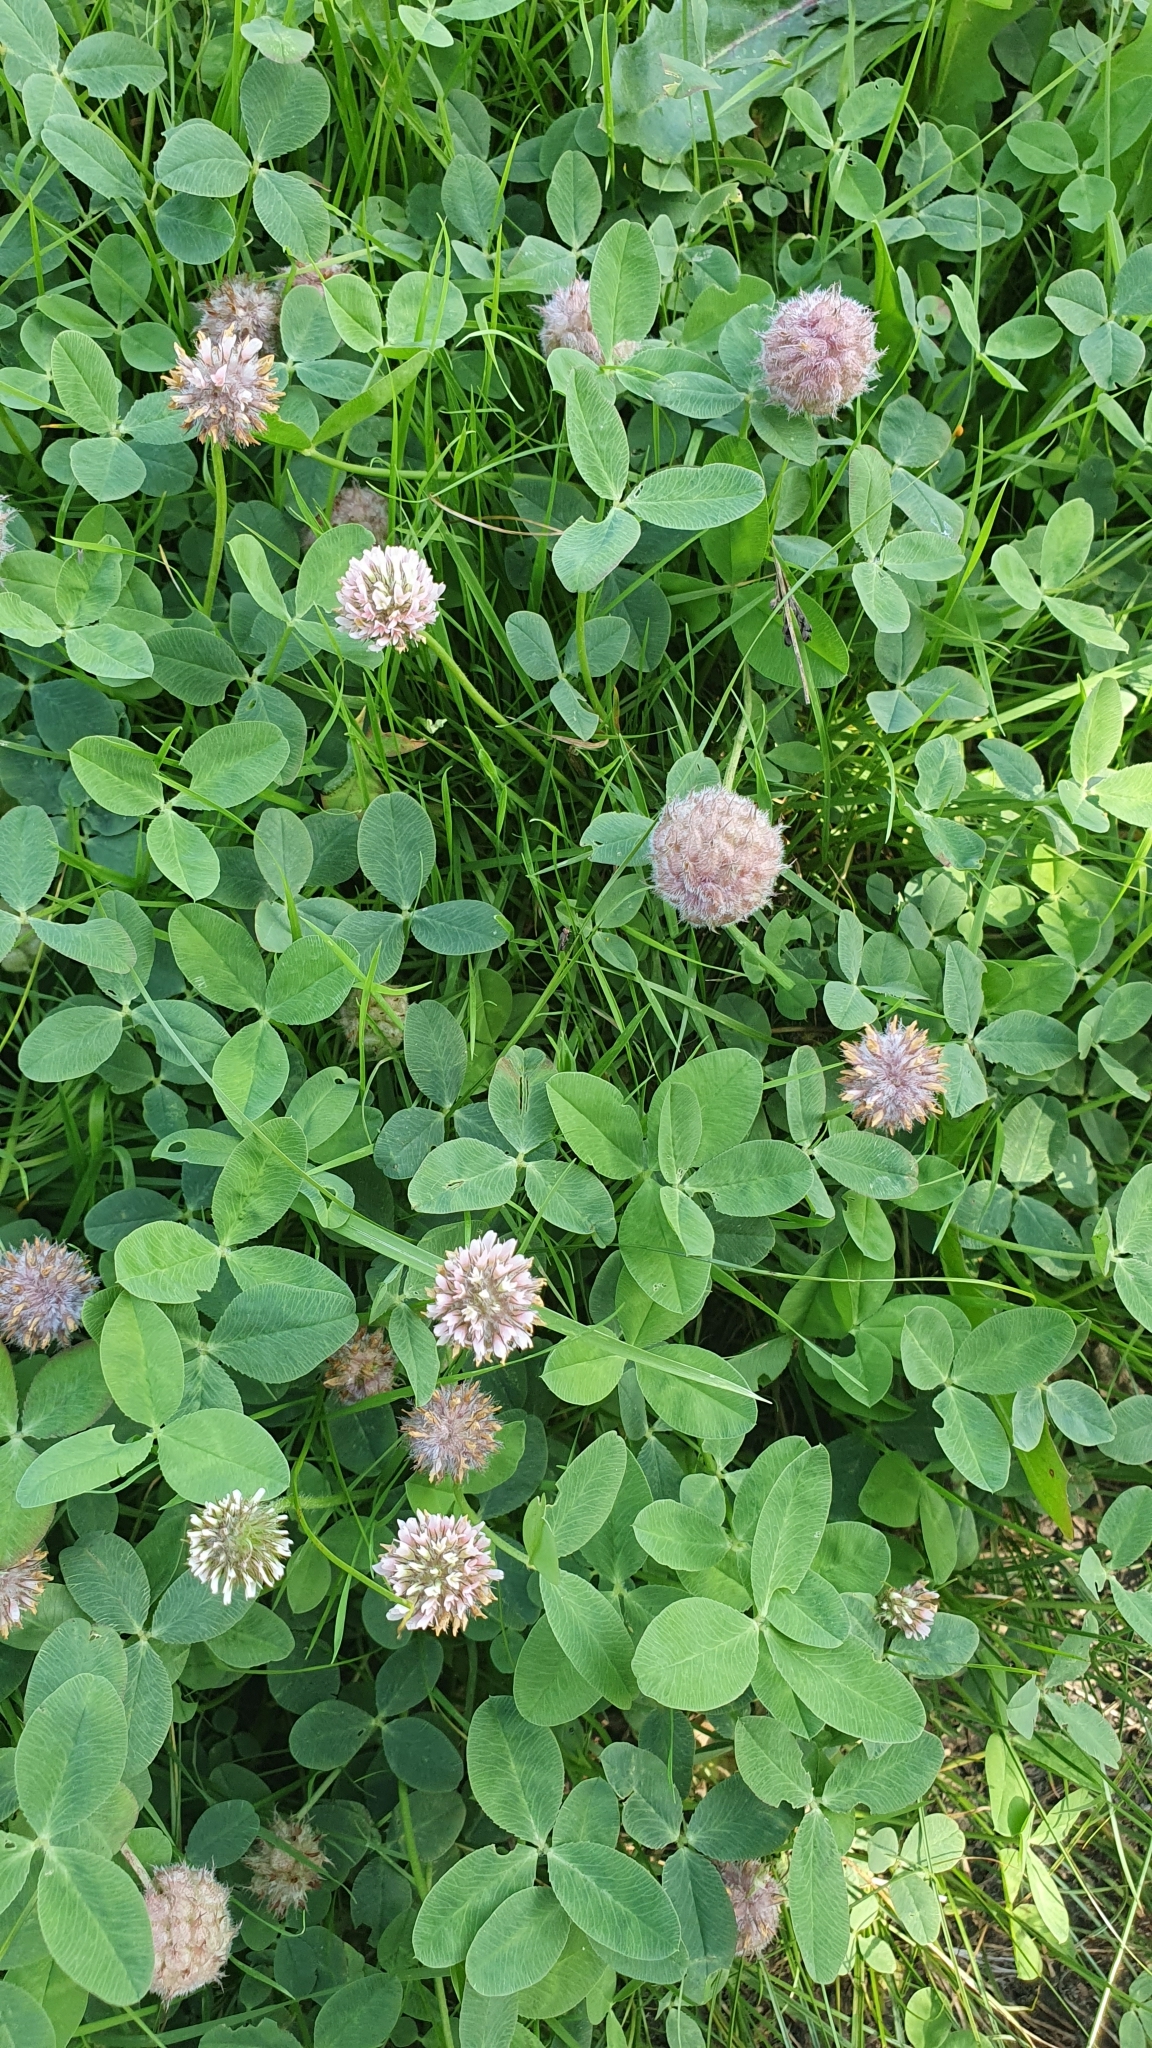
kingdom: Plantae
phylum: Tracheophyta
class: Magnoliopsida
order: Fabales
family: Fabaceae
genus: Trifolium
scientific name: Trifolium fragiferum
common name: Strawberry clover
